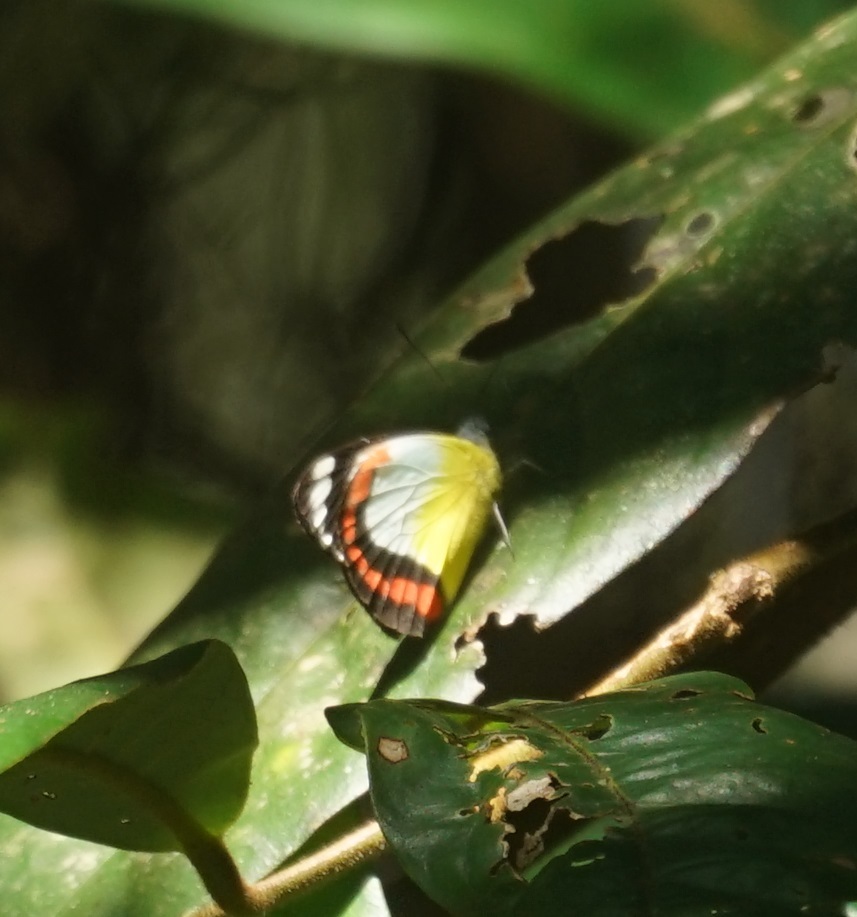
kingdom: Animalia
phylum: Arthropoda
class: Insecta
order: Lepidoptera
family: Pieridae
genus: Delias
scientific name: Delias mysis
